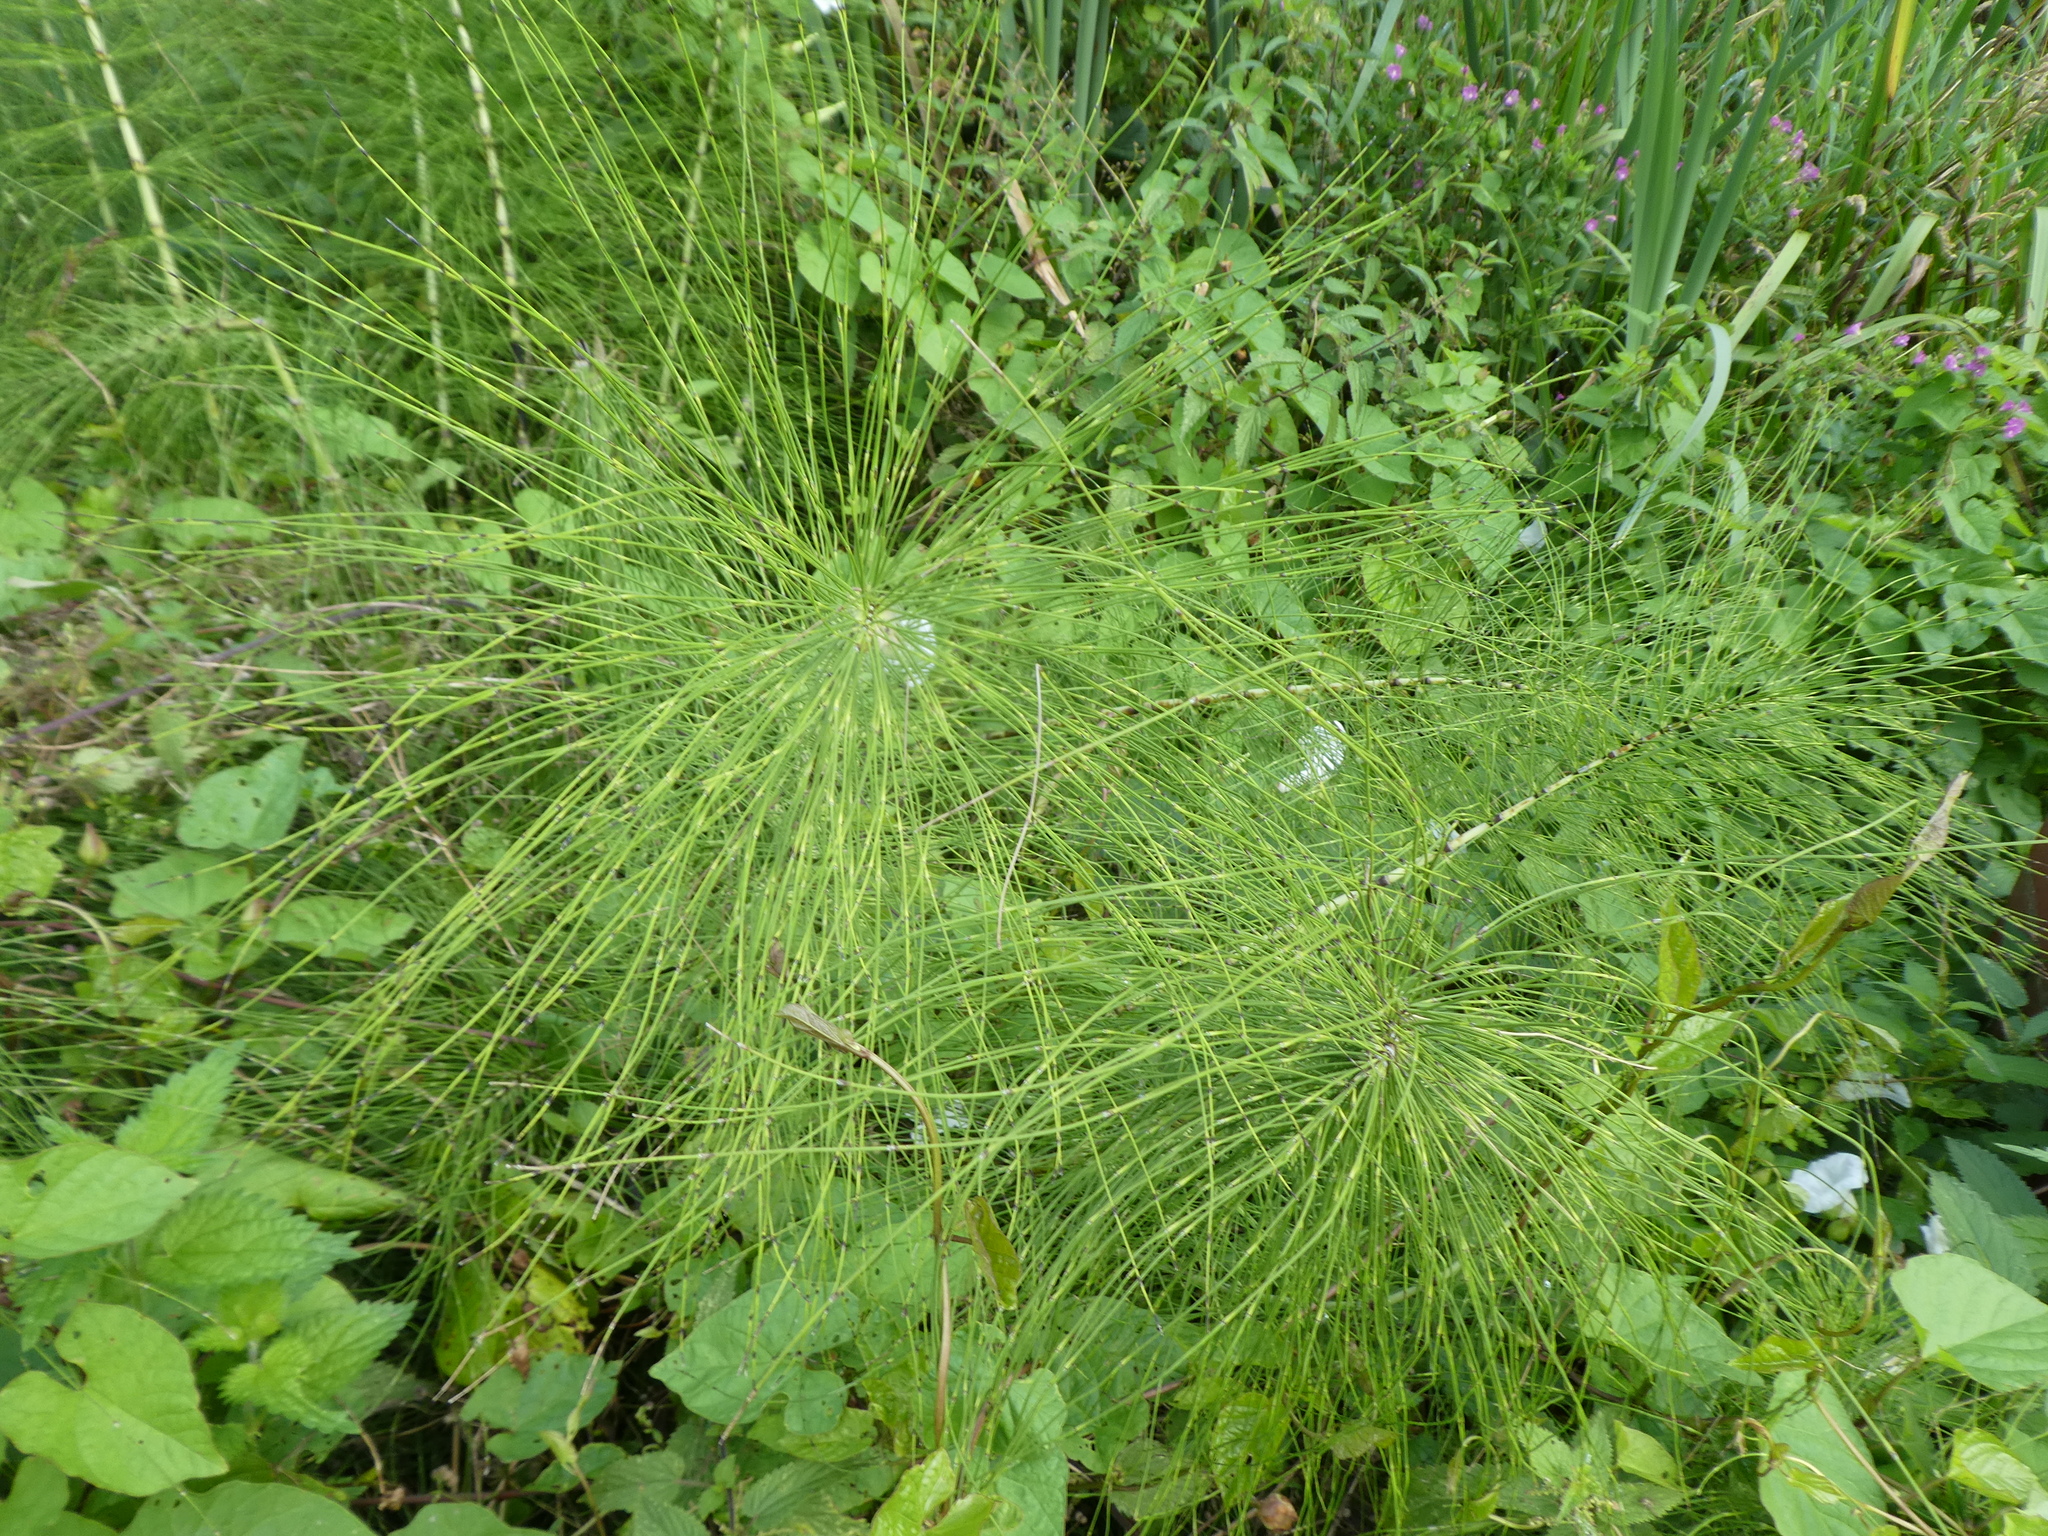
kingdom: Plantae
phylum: Tracheophyta
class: Polypodiopsida
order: Equisetales
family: Equisetaceae
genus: Equisetum
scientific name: Equisetum telmateia
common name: Great horsetail
